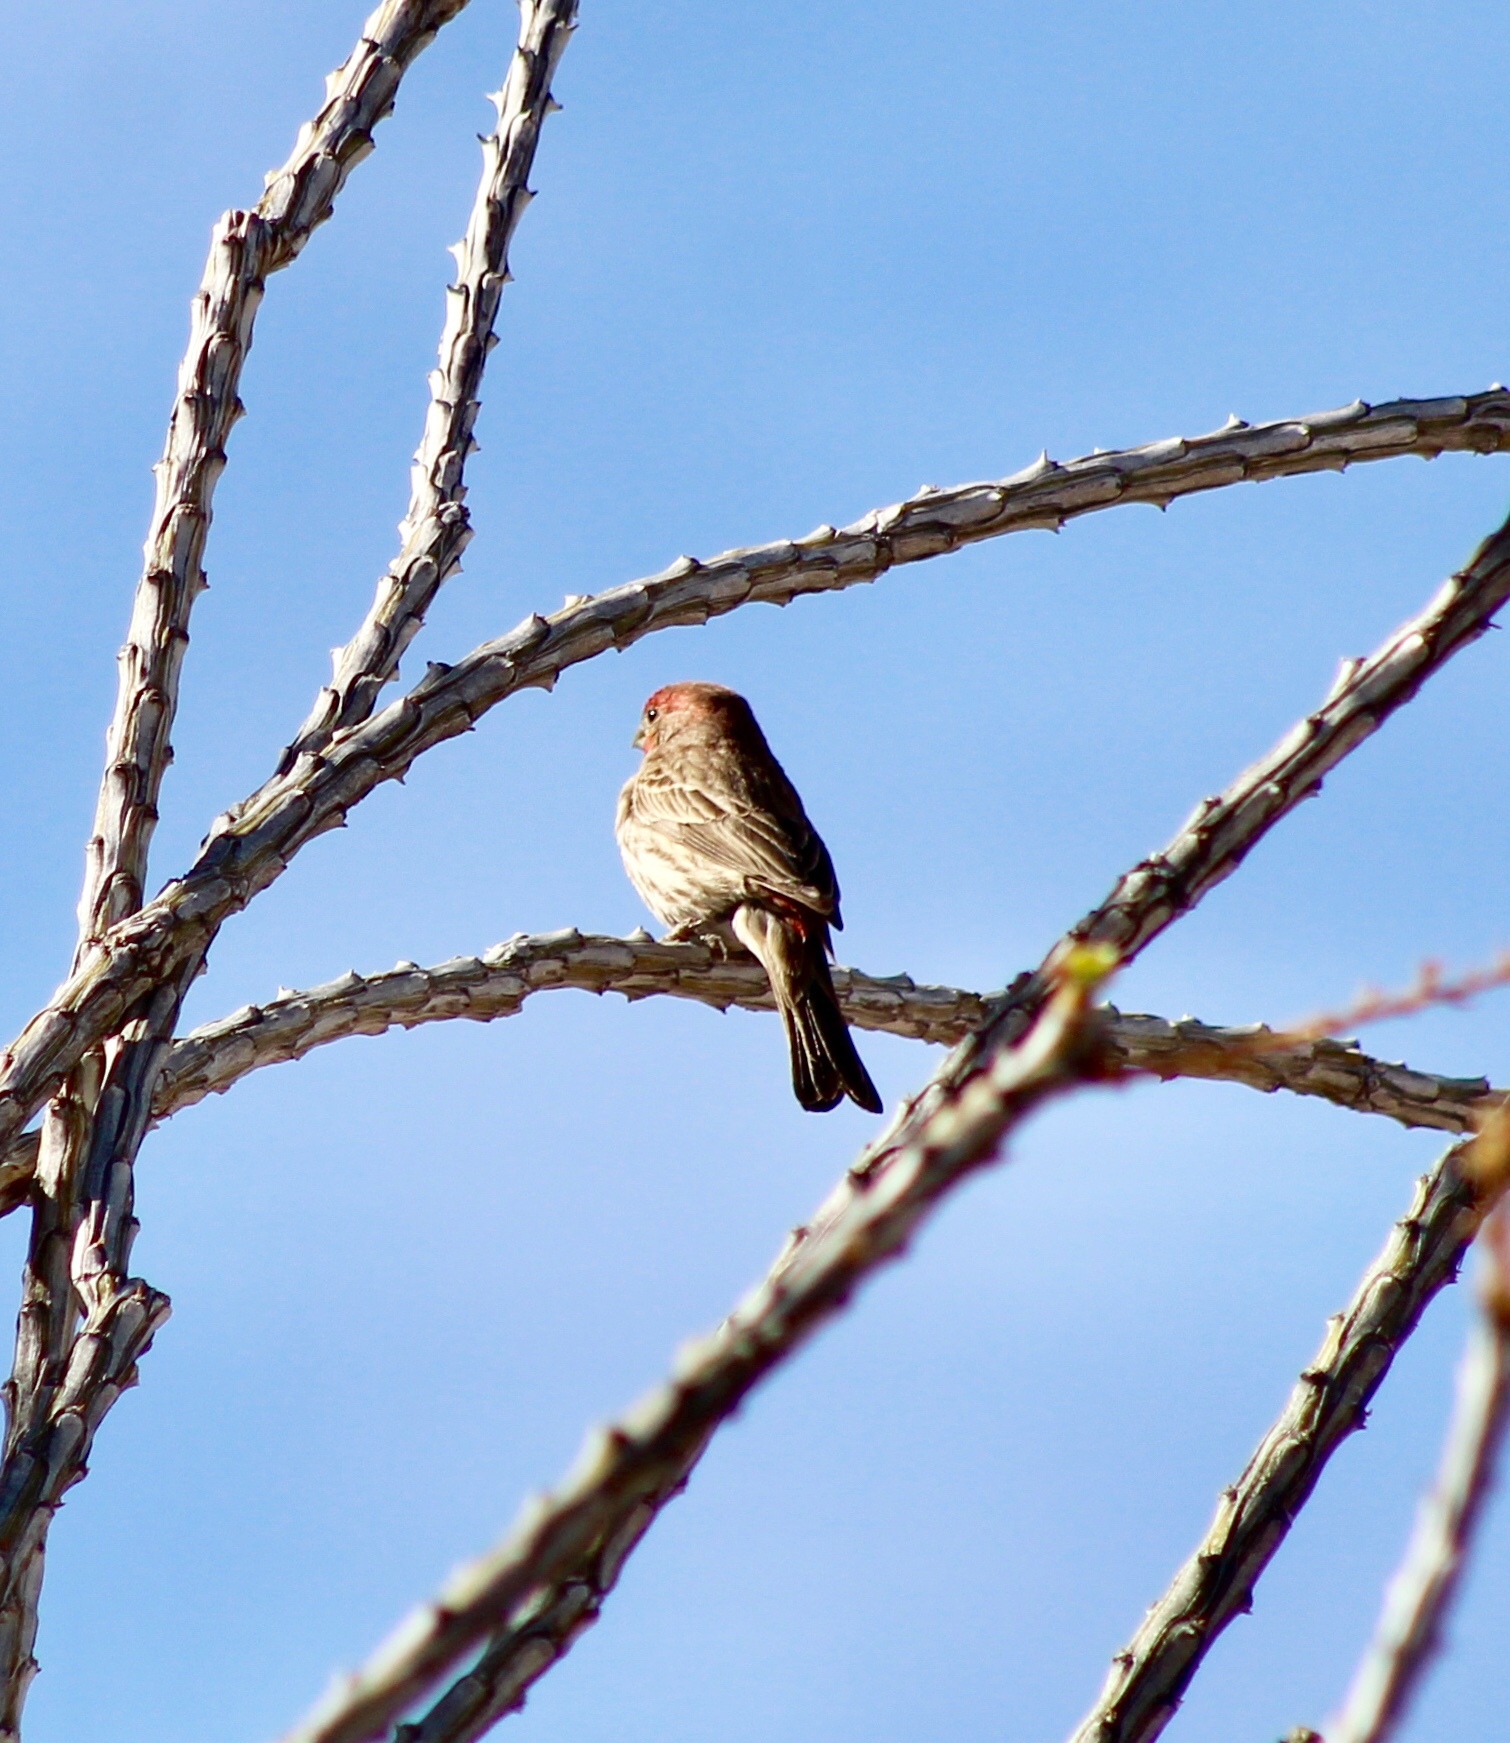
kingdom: Animalia
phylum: Chordata
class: Aves
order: Passeriformes
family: Fringillidae
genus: Haemorhous
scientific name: Haemorhous mexicanus
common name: House finch
